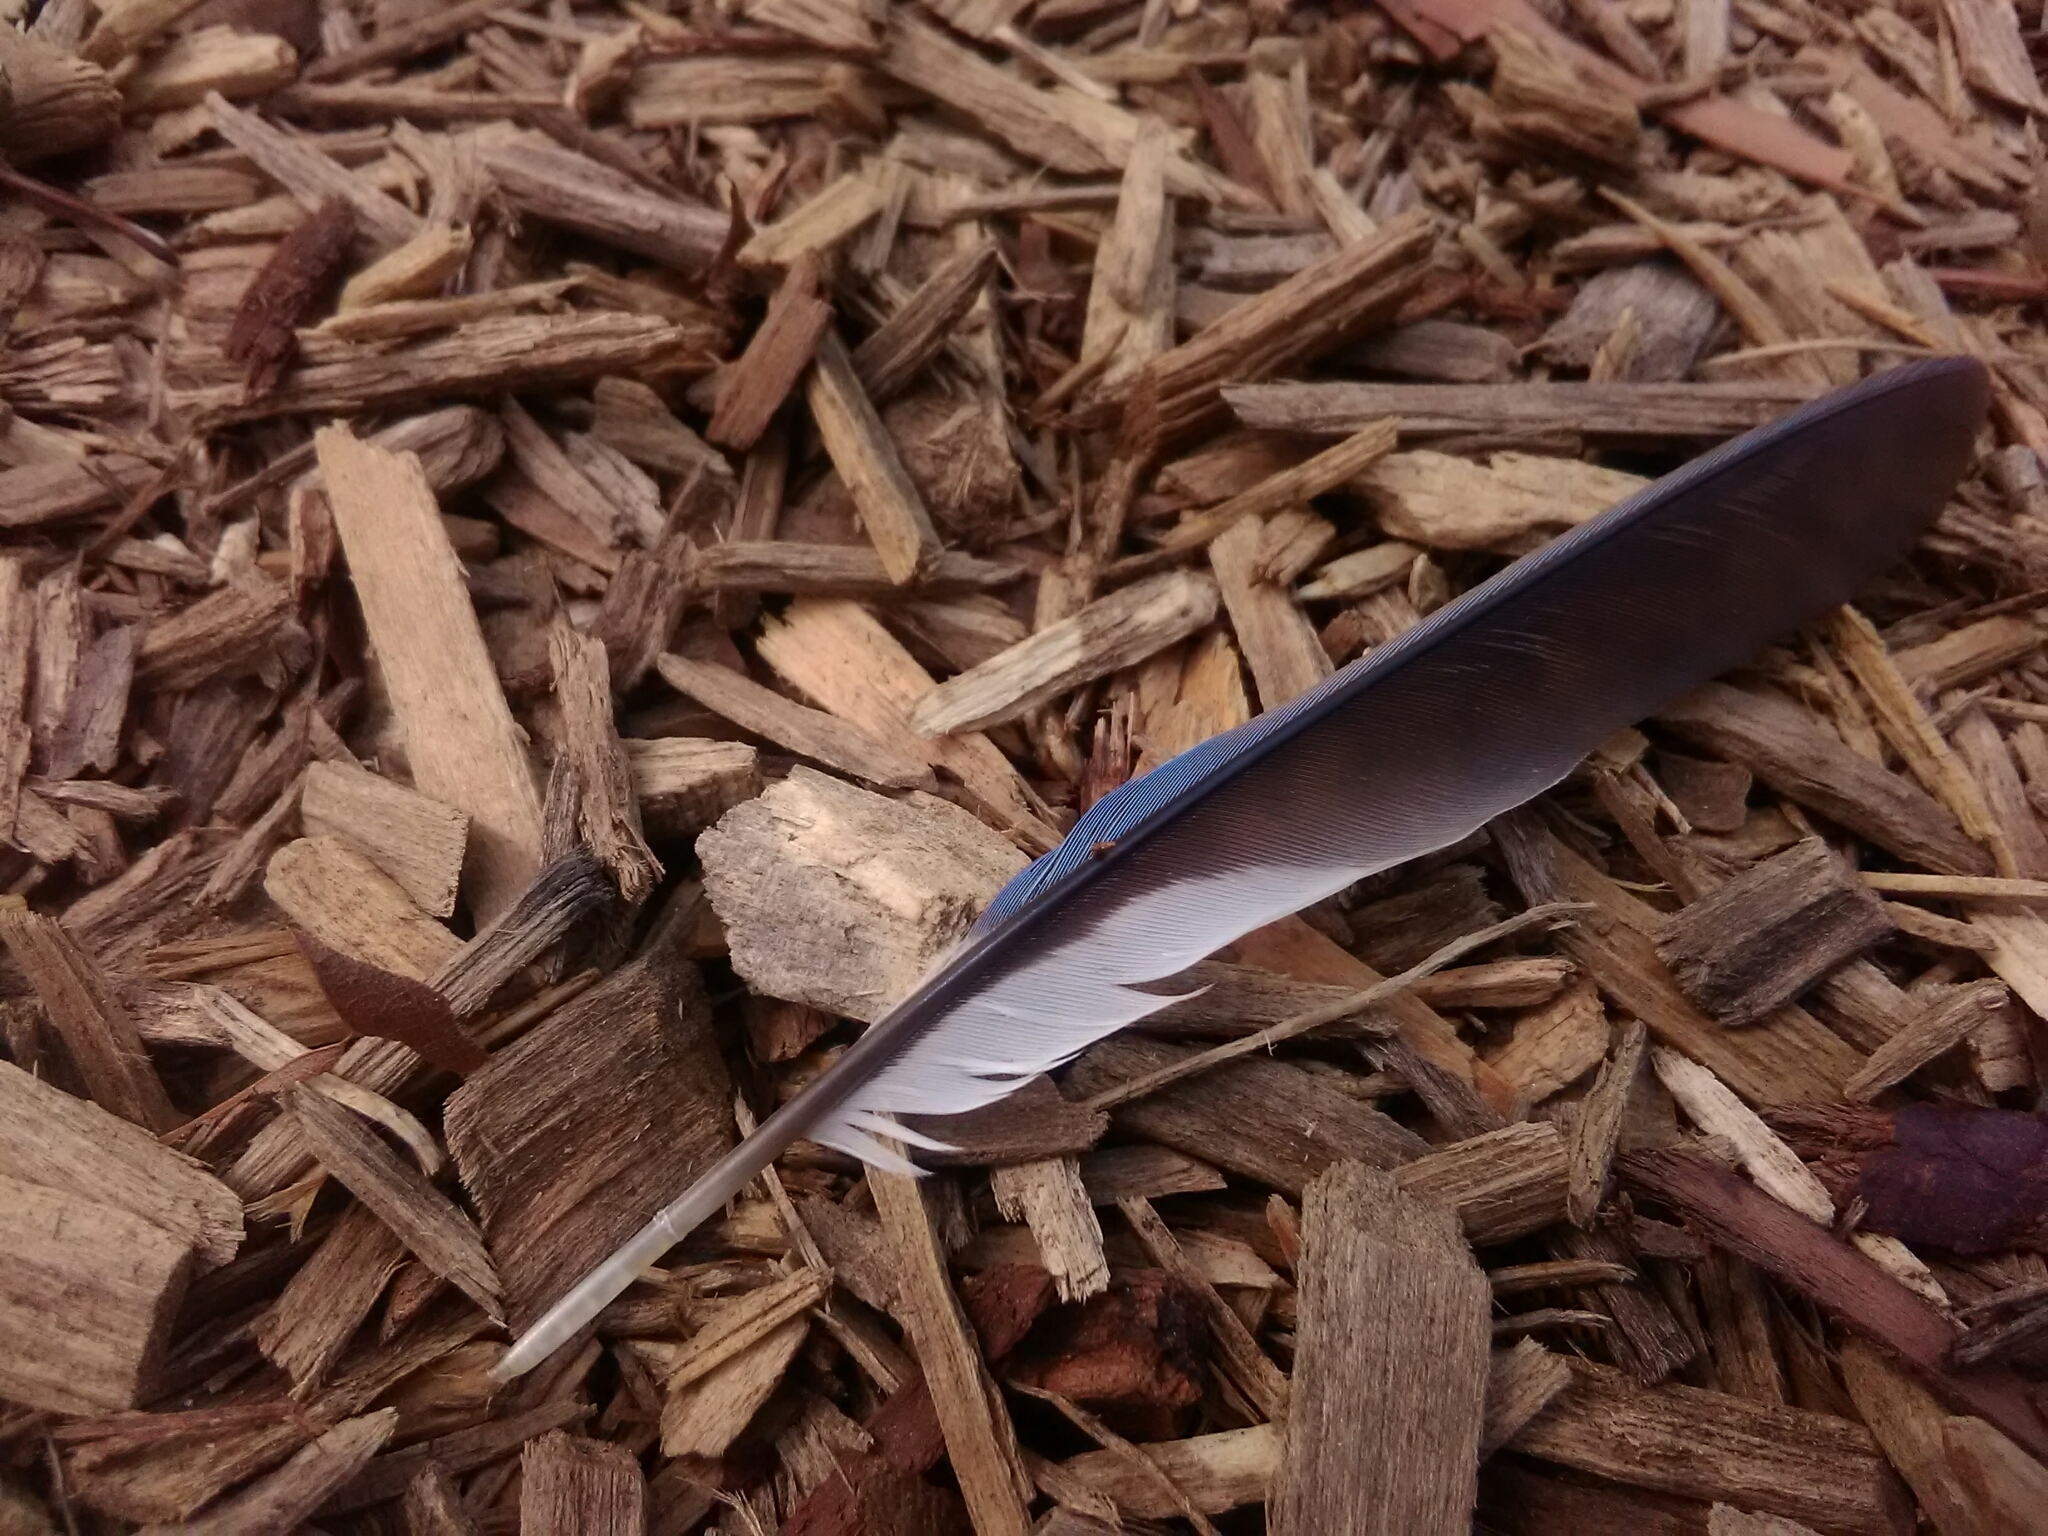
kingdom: Animalia
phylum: Chordata
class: Aves
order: Passeriformes
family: Corvidae
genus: Cyanocitta
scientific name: Cyanocitta cristata
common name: Blue jay
